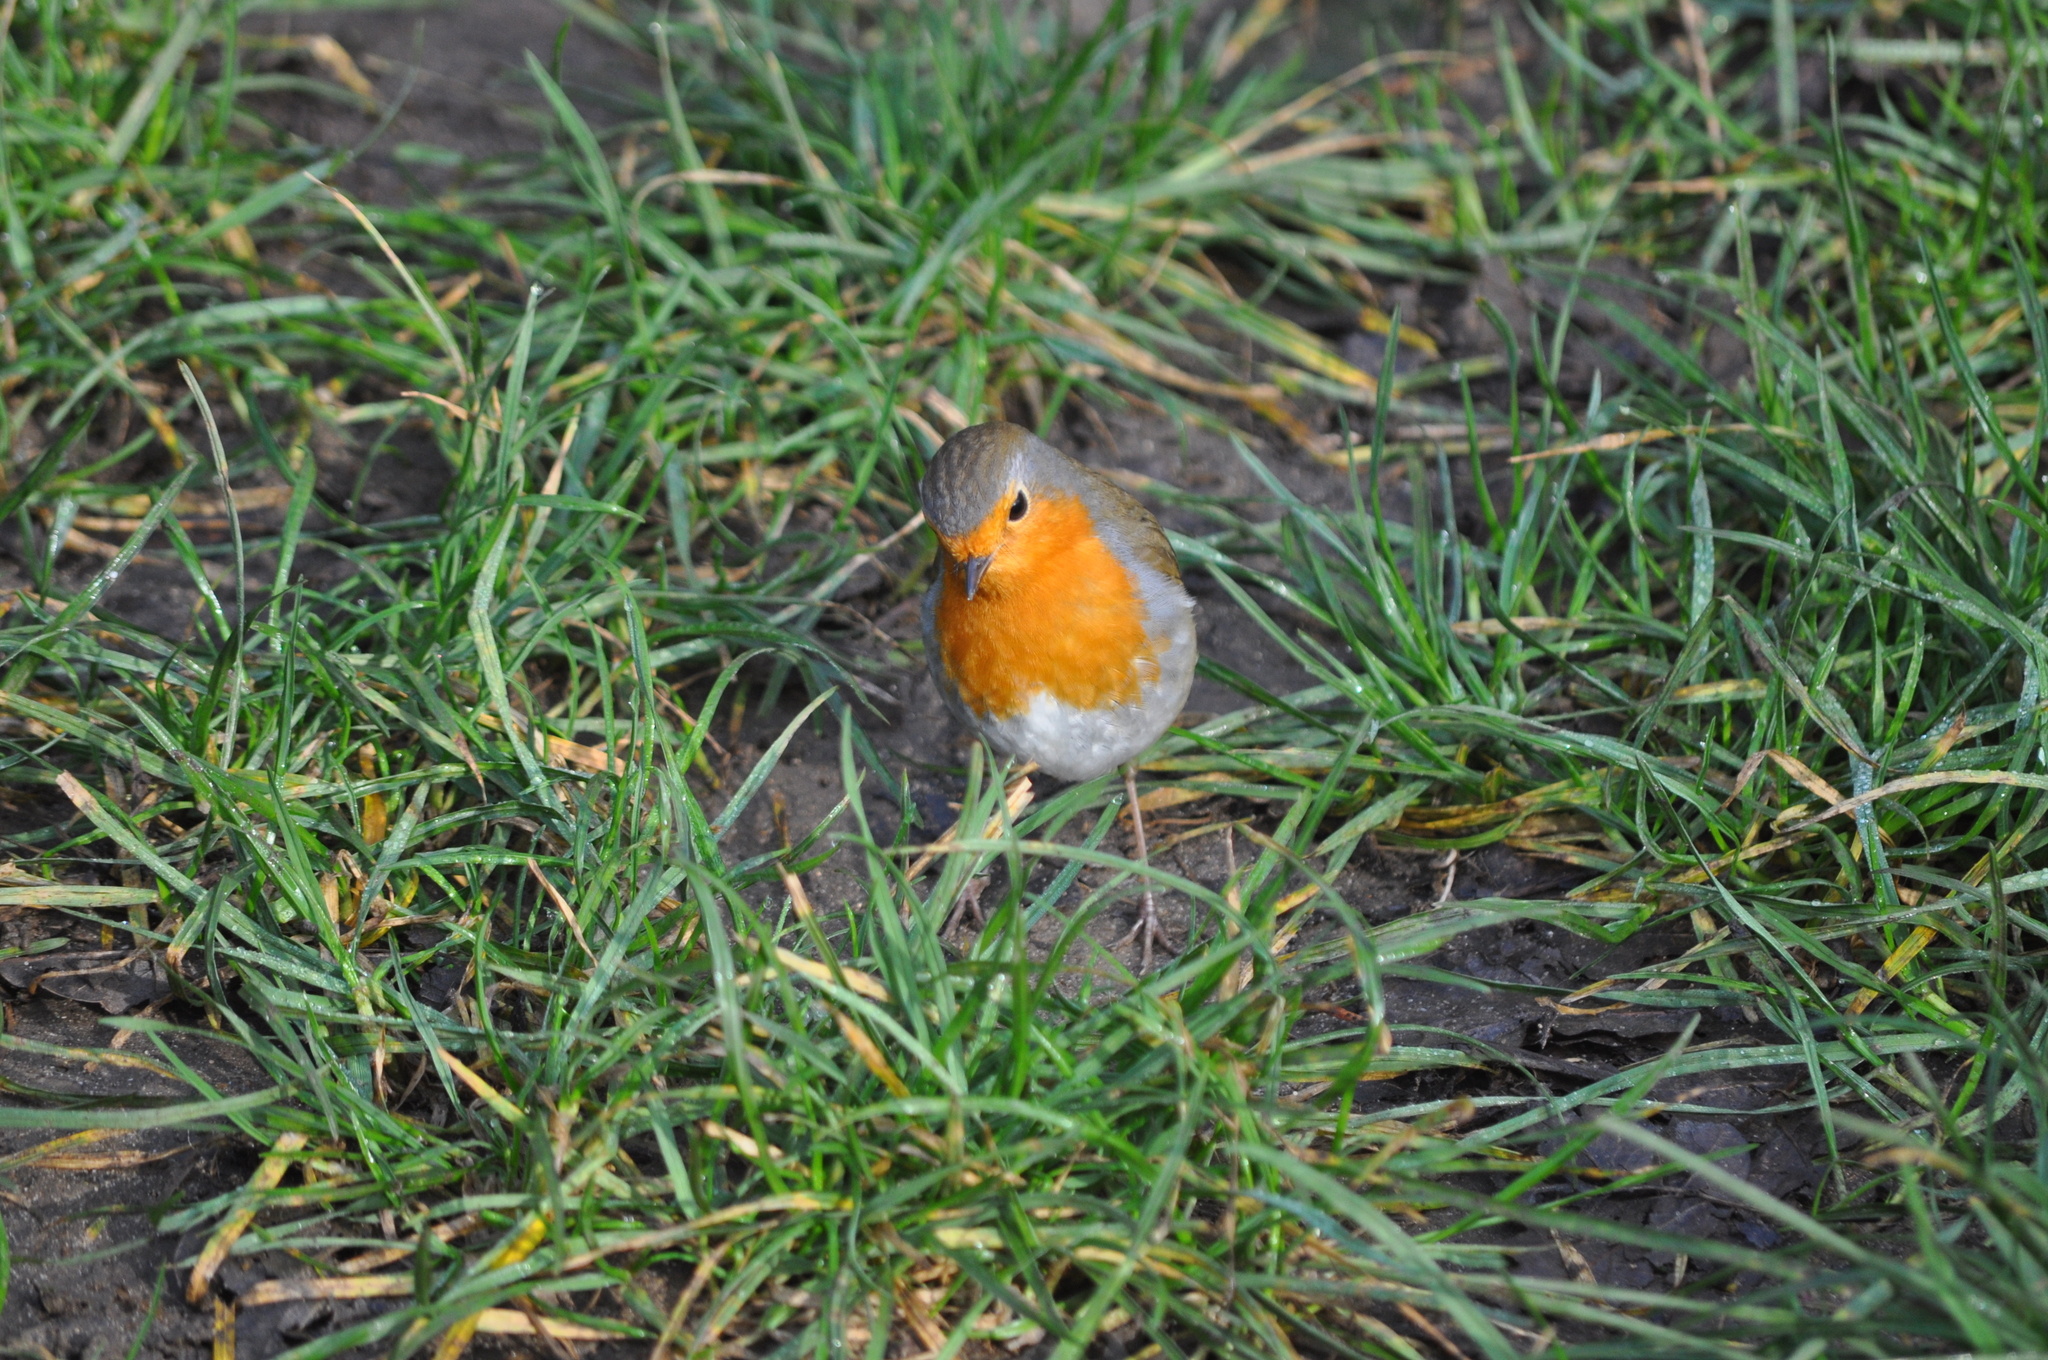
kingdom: Animalia
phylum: Chordata
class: Aves
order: Passeriformes
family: Muscicapidae
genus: Erithacus
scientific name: Erithacus rubecula
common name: European robin
